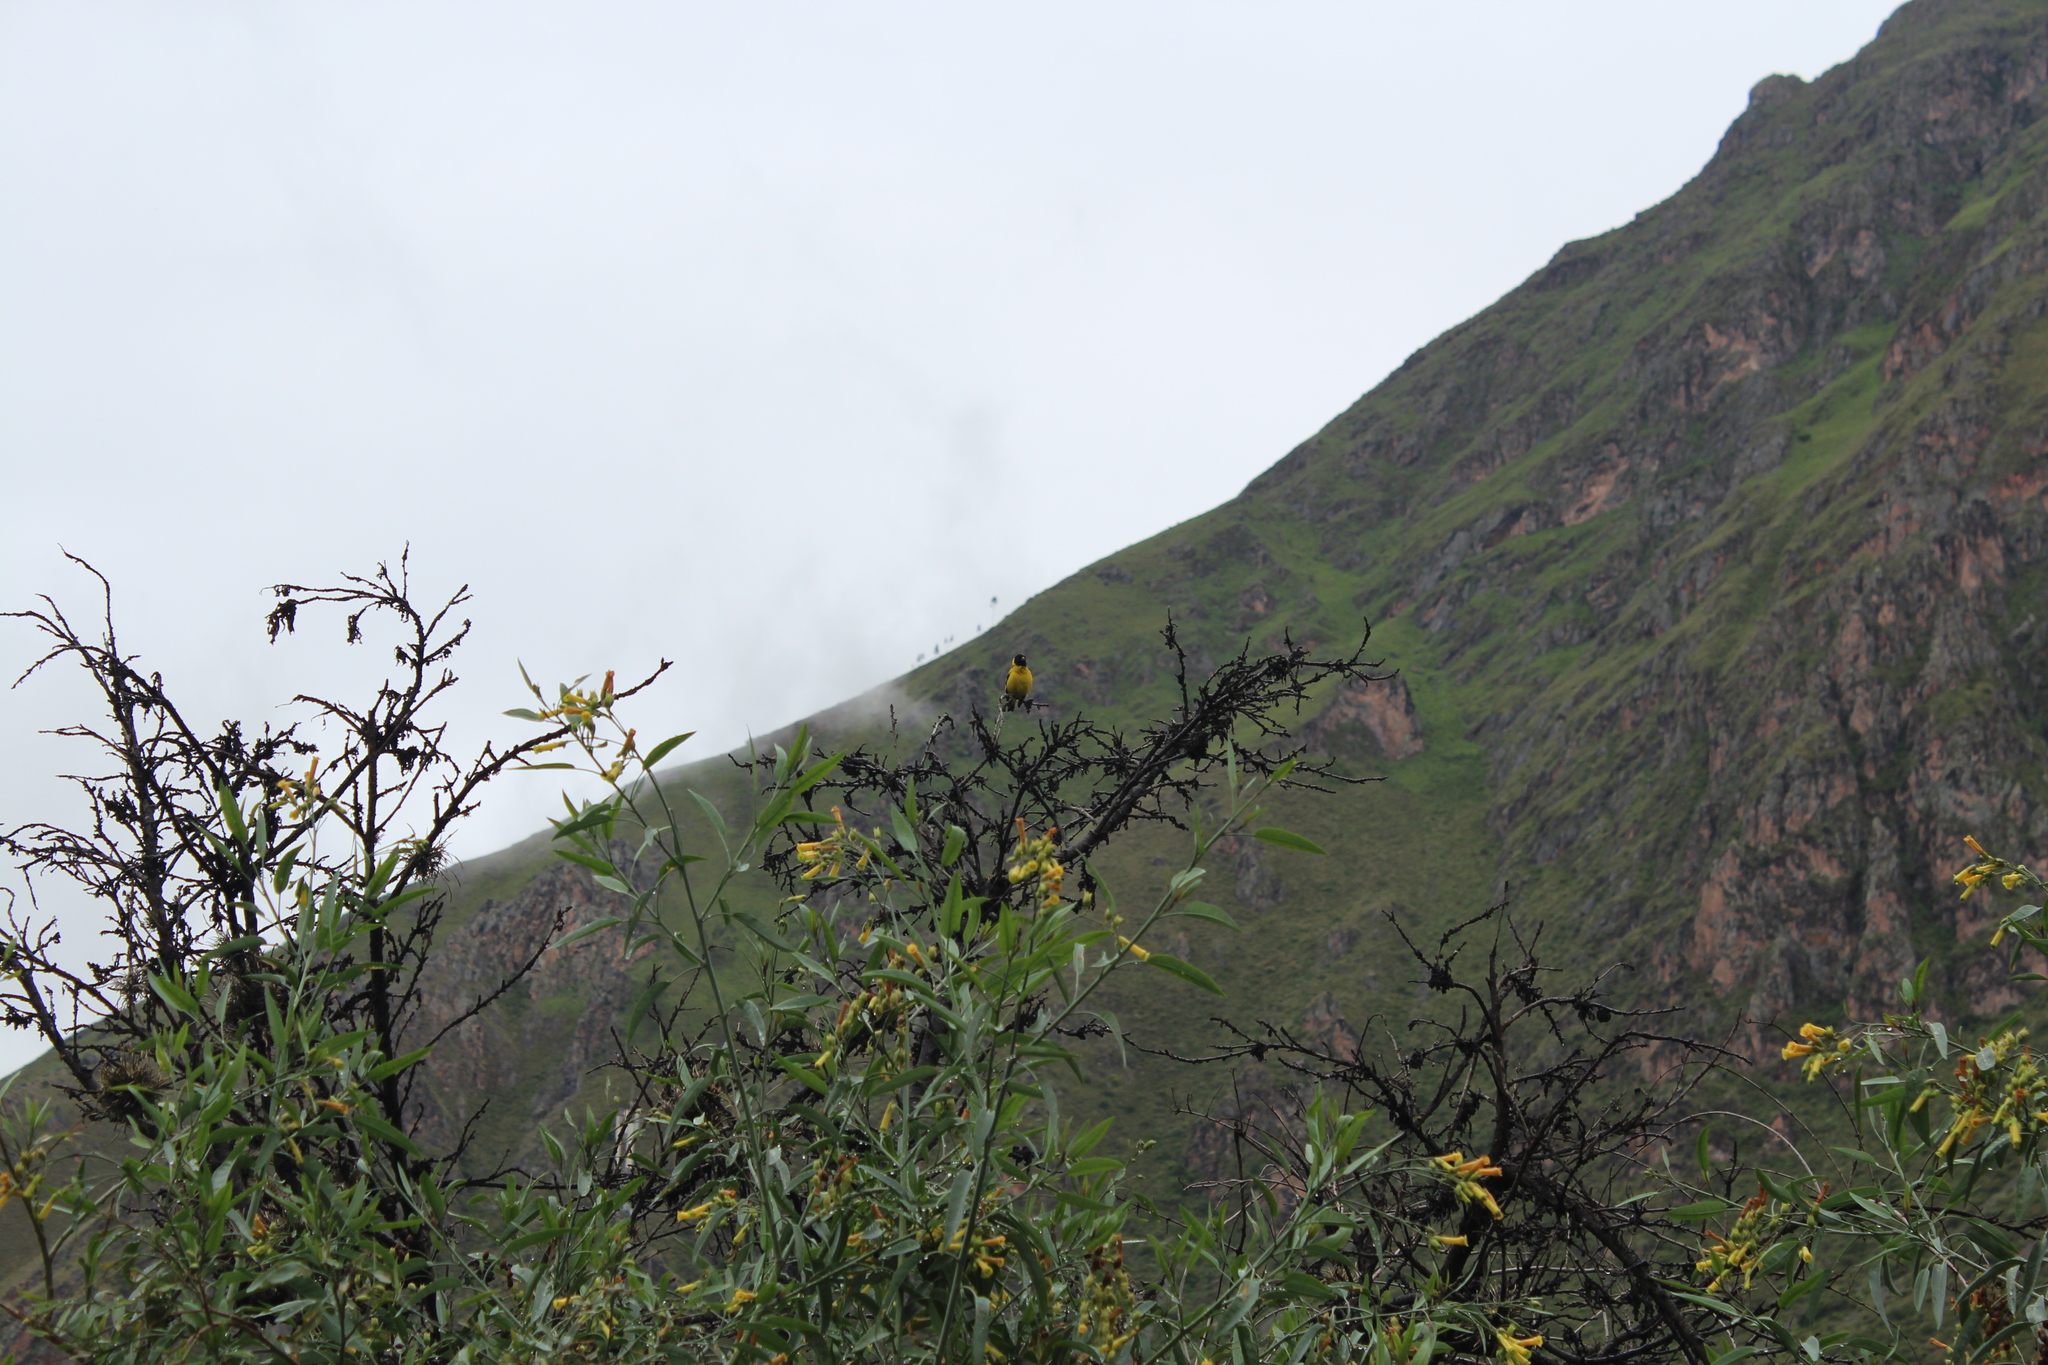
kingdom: Animalia
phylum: Chordata
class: Aves
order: Passeriformes
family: Fringillidae
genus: Spinus
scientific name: Spinus magellanicus
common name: Hooded siskin
